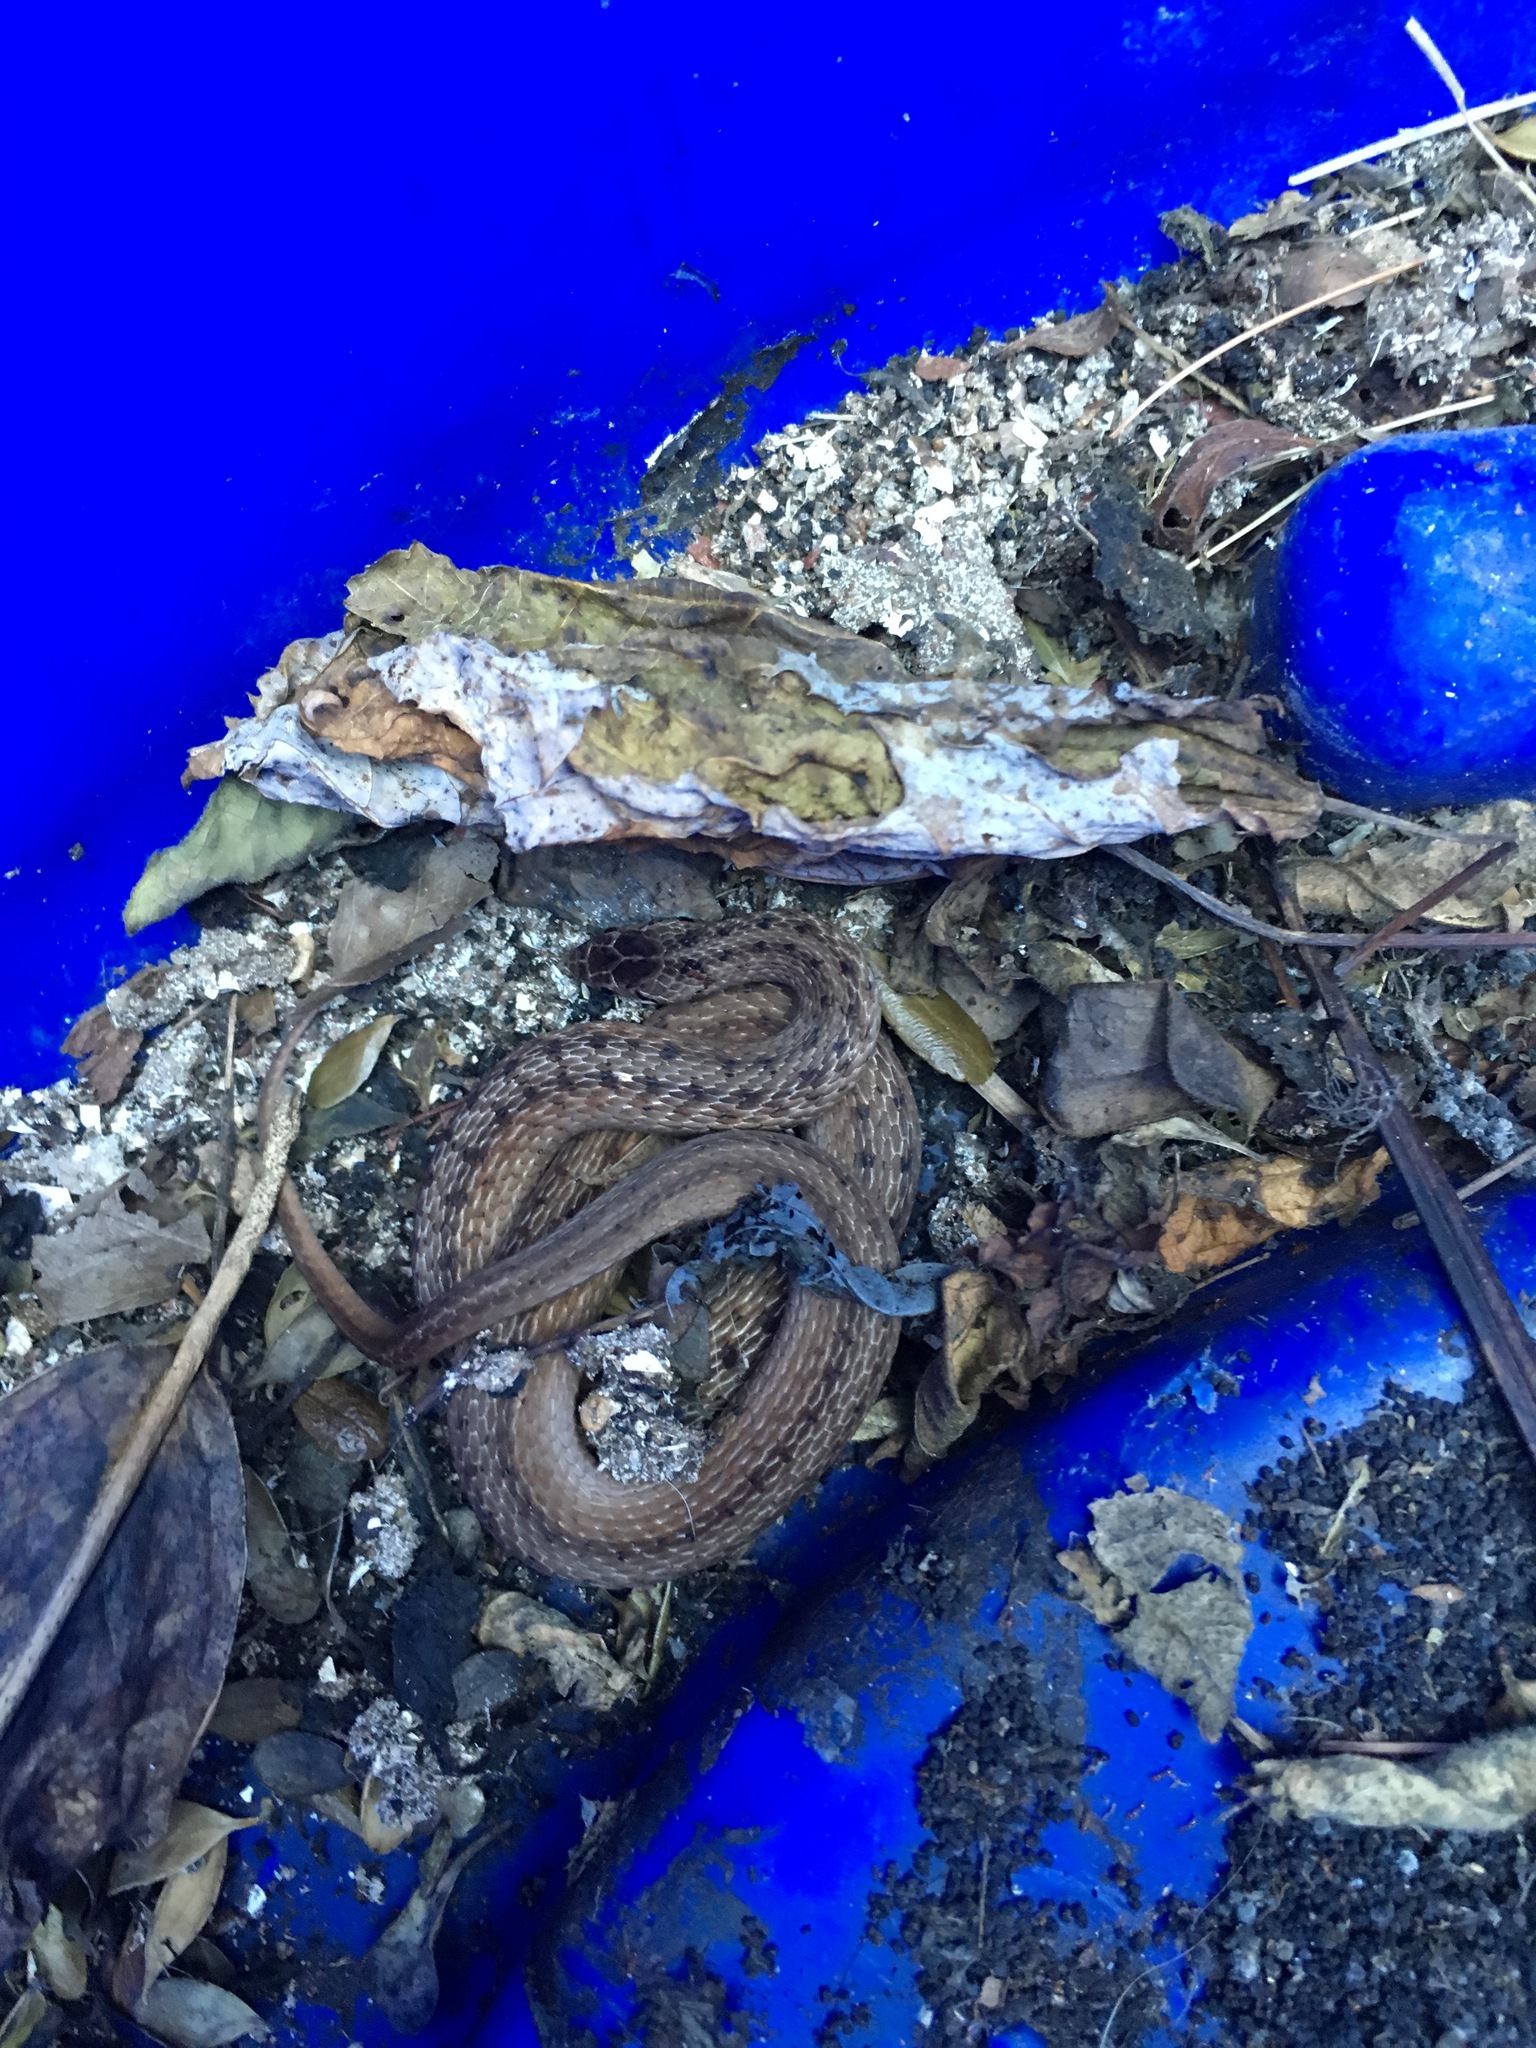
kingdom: Animalia
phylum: Chordata
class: Squamata
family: Colubridae
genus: Storeria
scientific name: Storeria dekayi
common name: (dekay’s) brown snake
